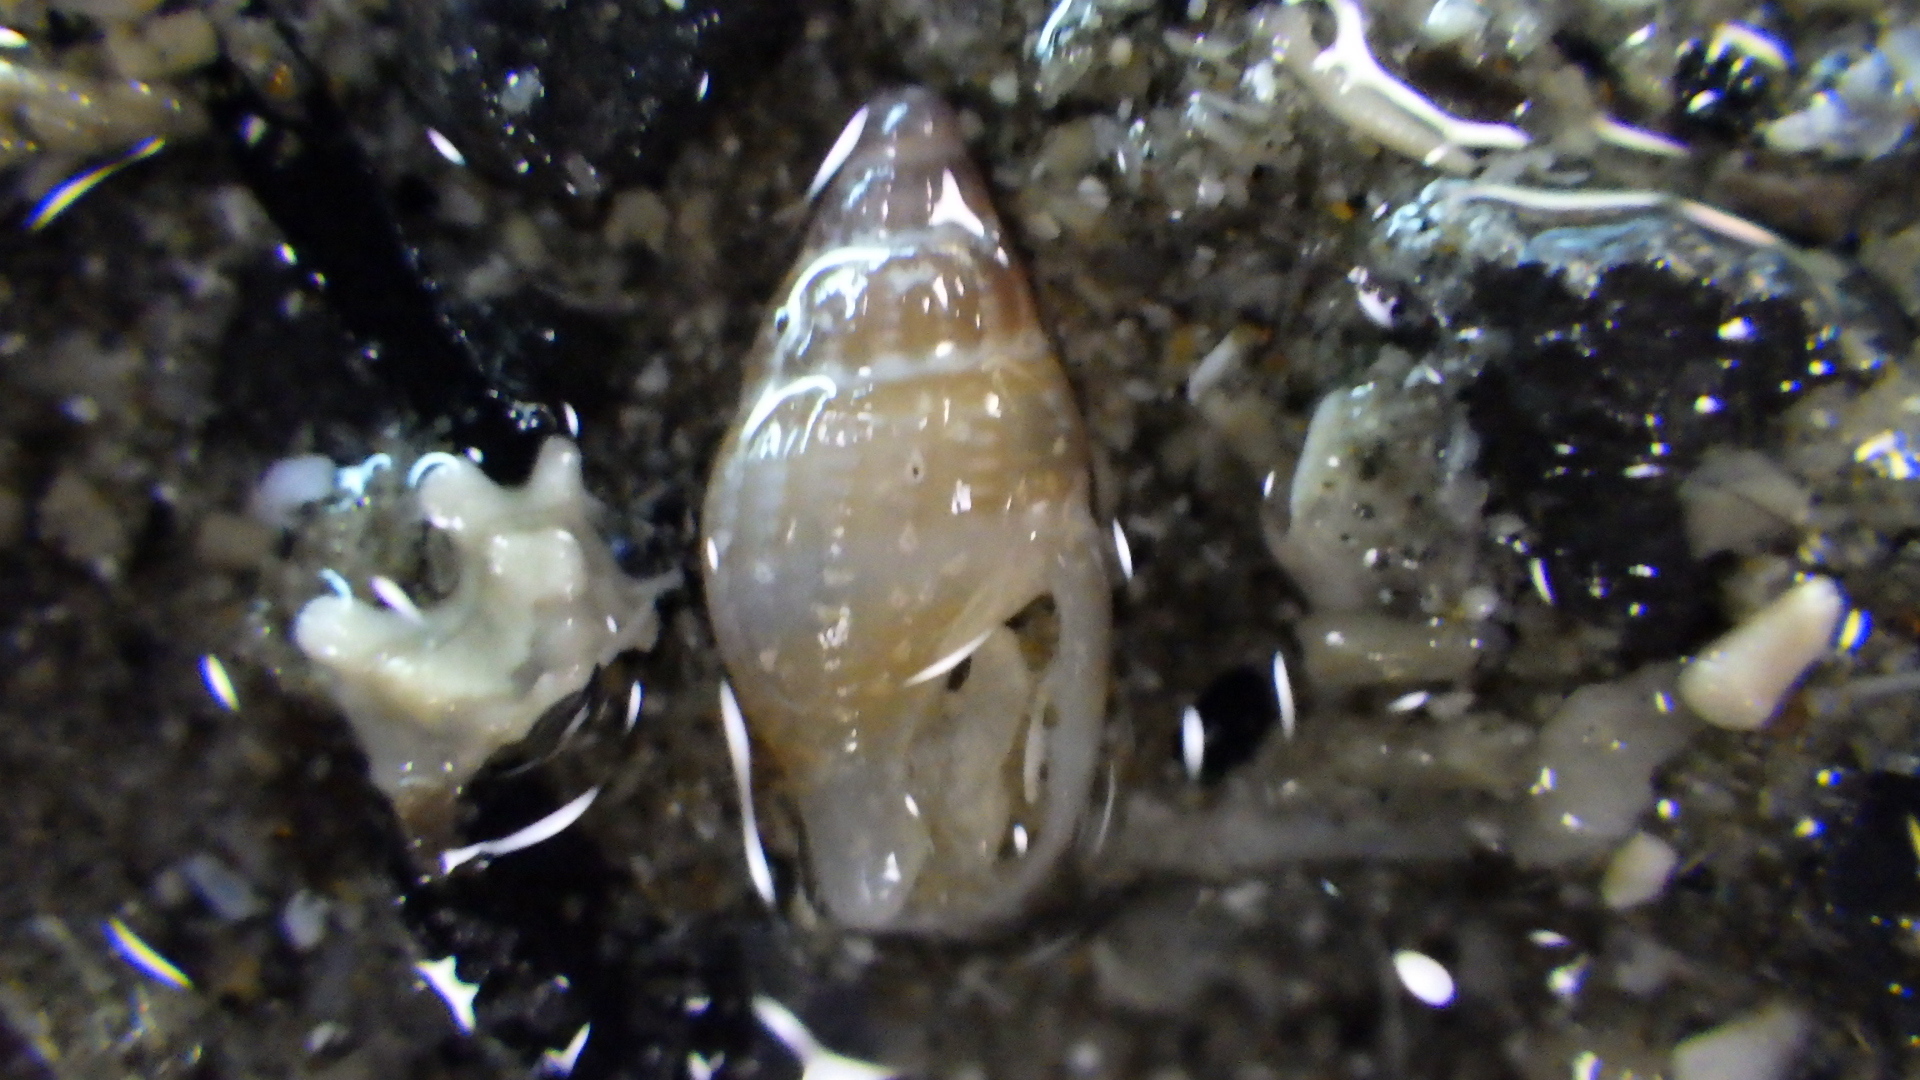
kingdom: Animalia
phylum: Mollusca
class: Gastropoda
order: Neogastropoda
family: Columbellidae
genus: Macrozafra
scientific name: Macrozafra subabnormis
